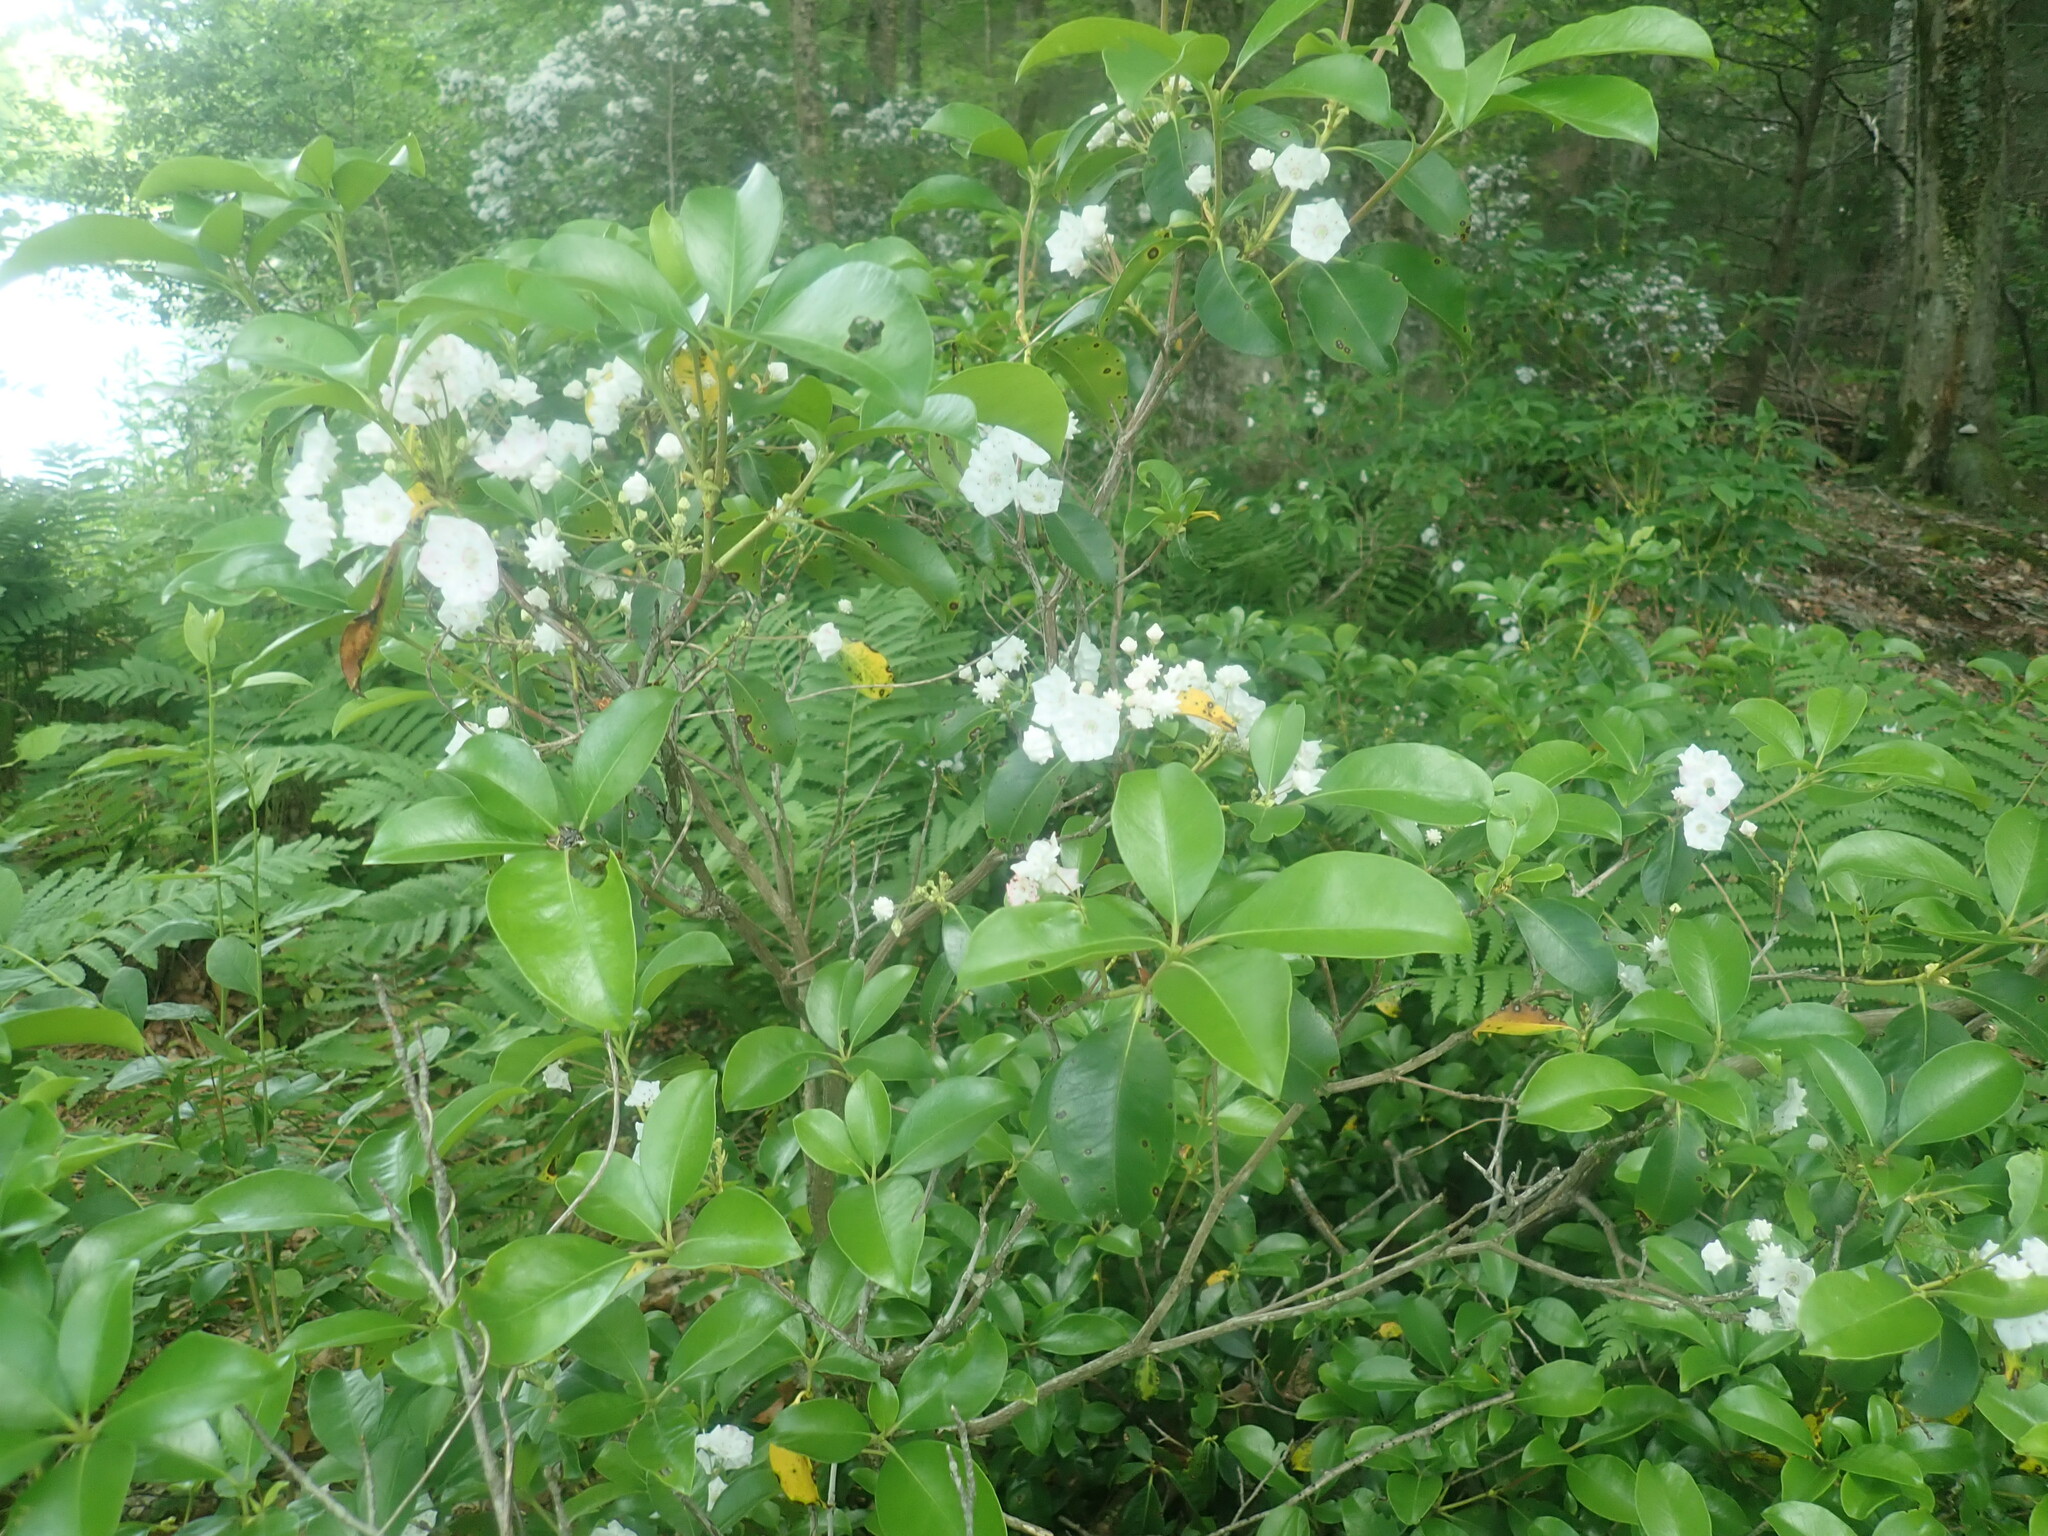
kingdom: Plantae
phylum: Tracheophyta
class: Magnoliopsida
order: Ericales
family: Ericaceae
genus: Kalmia
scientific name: Kalmia latifolia
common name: Mountain-laurel
